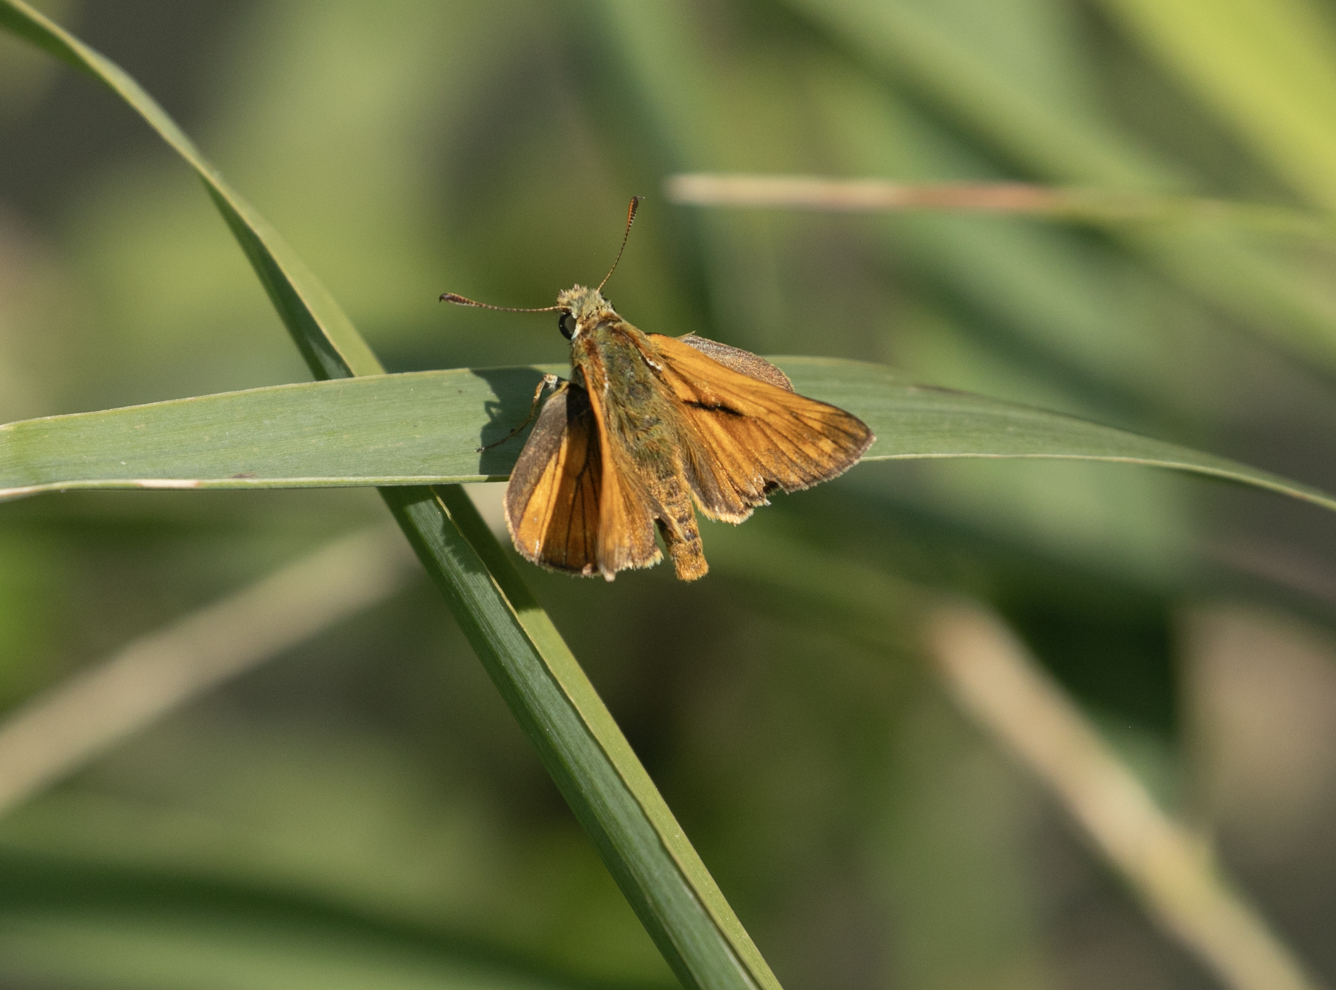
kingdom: Animalia
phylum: Arthropoda
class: Insecta
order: Lepidoptera
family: Hesperiidae
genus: Ochlodes
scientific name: Ochlodes venata
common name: Large skipper
